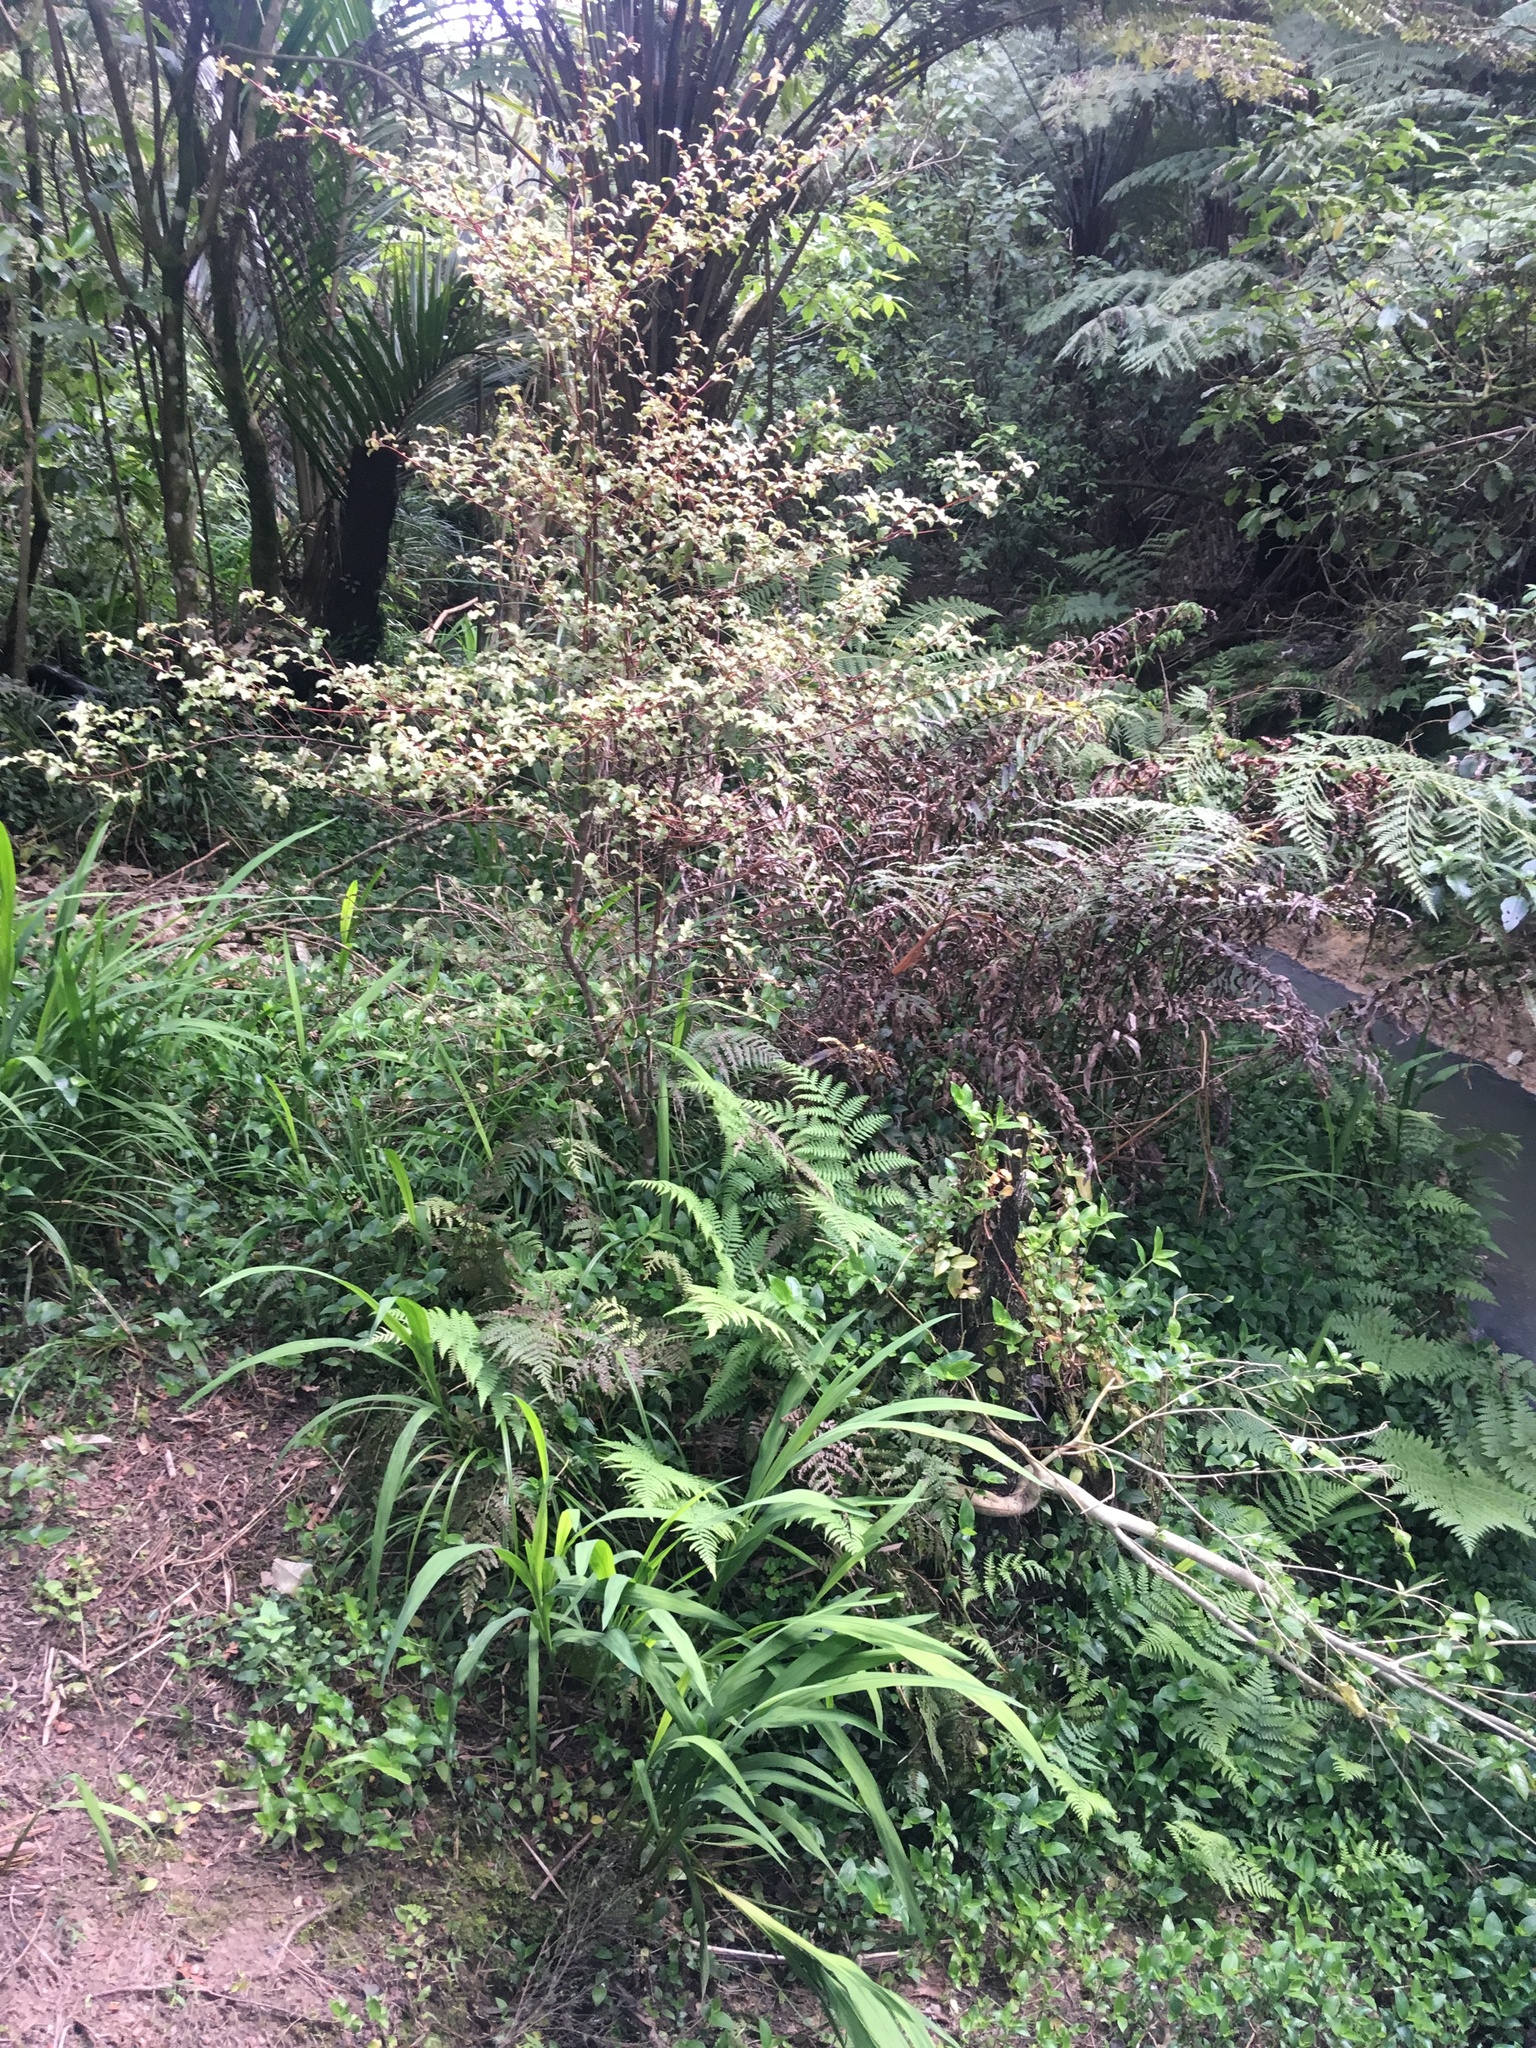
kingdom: Plantae
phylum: Tracheophyta
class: Liliopsida
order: Asparagales
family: Iridaceae
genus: Crocosmia
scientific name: Crocosmia crocosmiiflora
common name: Montbretia
